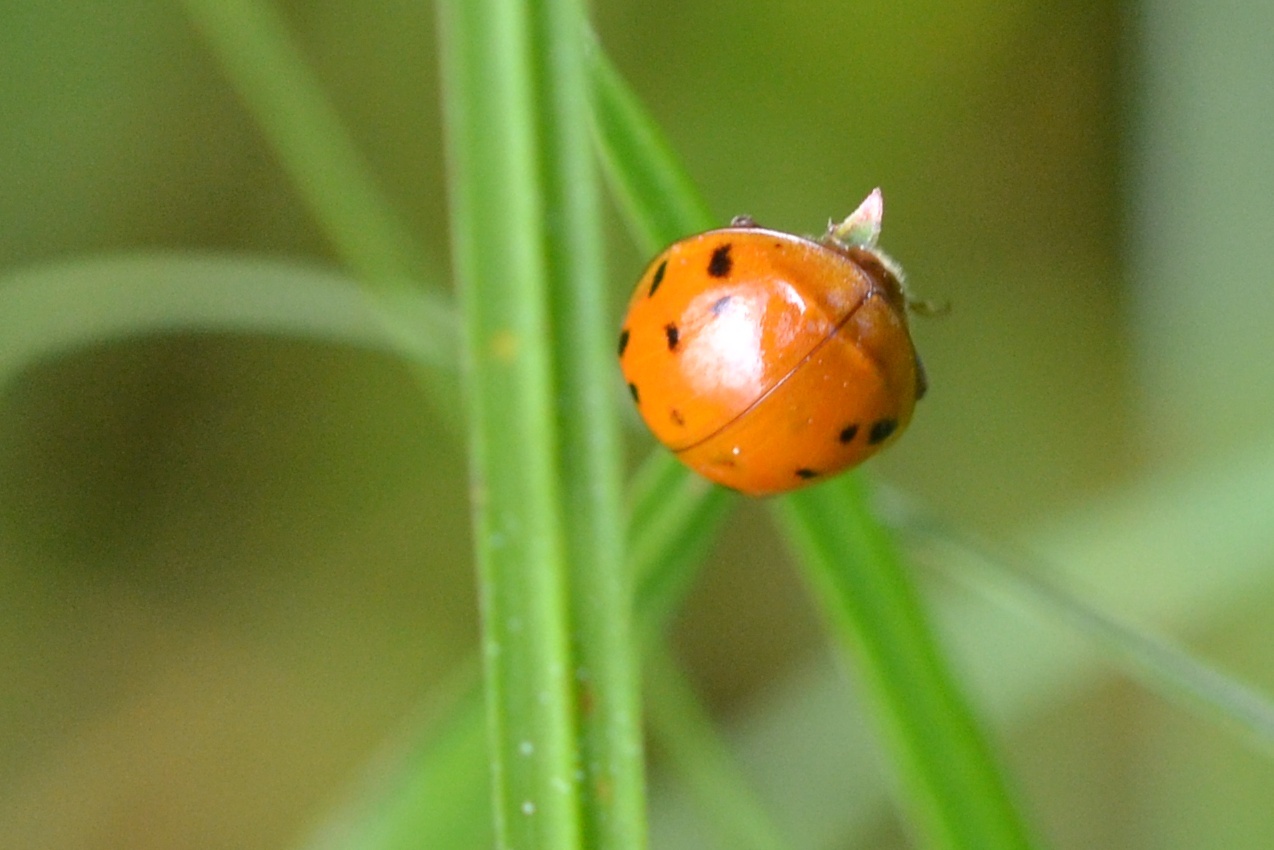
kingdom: Animalia
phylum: Arthropoda
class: Insecta
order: Coleoptera
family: Coccinellidae
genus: Harmonia
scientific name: Harmonia axyridis
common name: Harlequin ladybird
